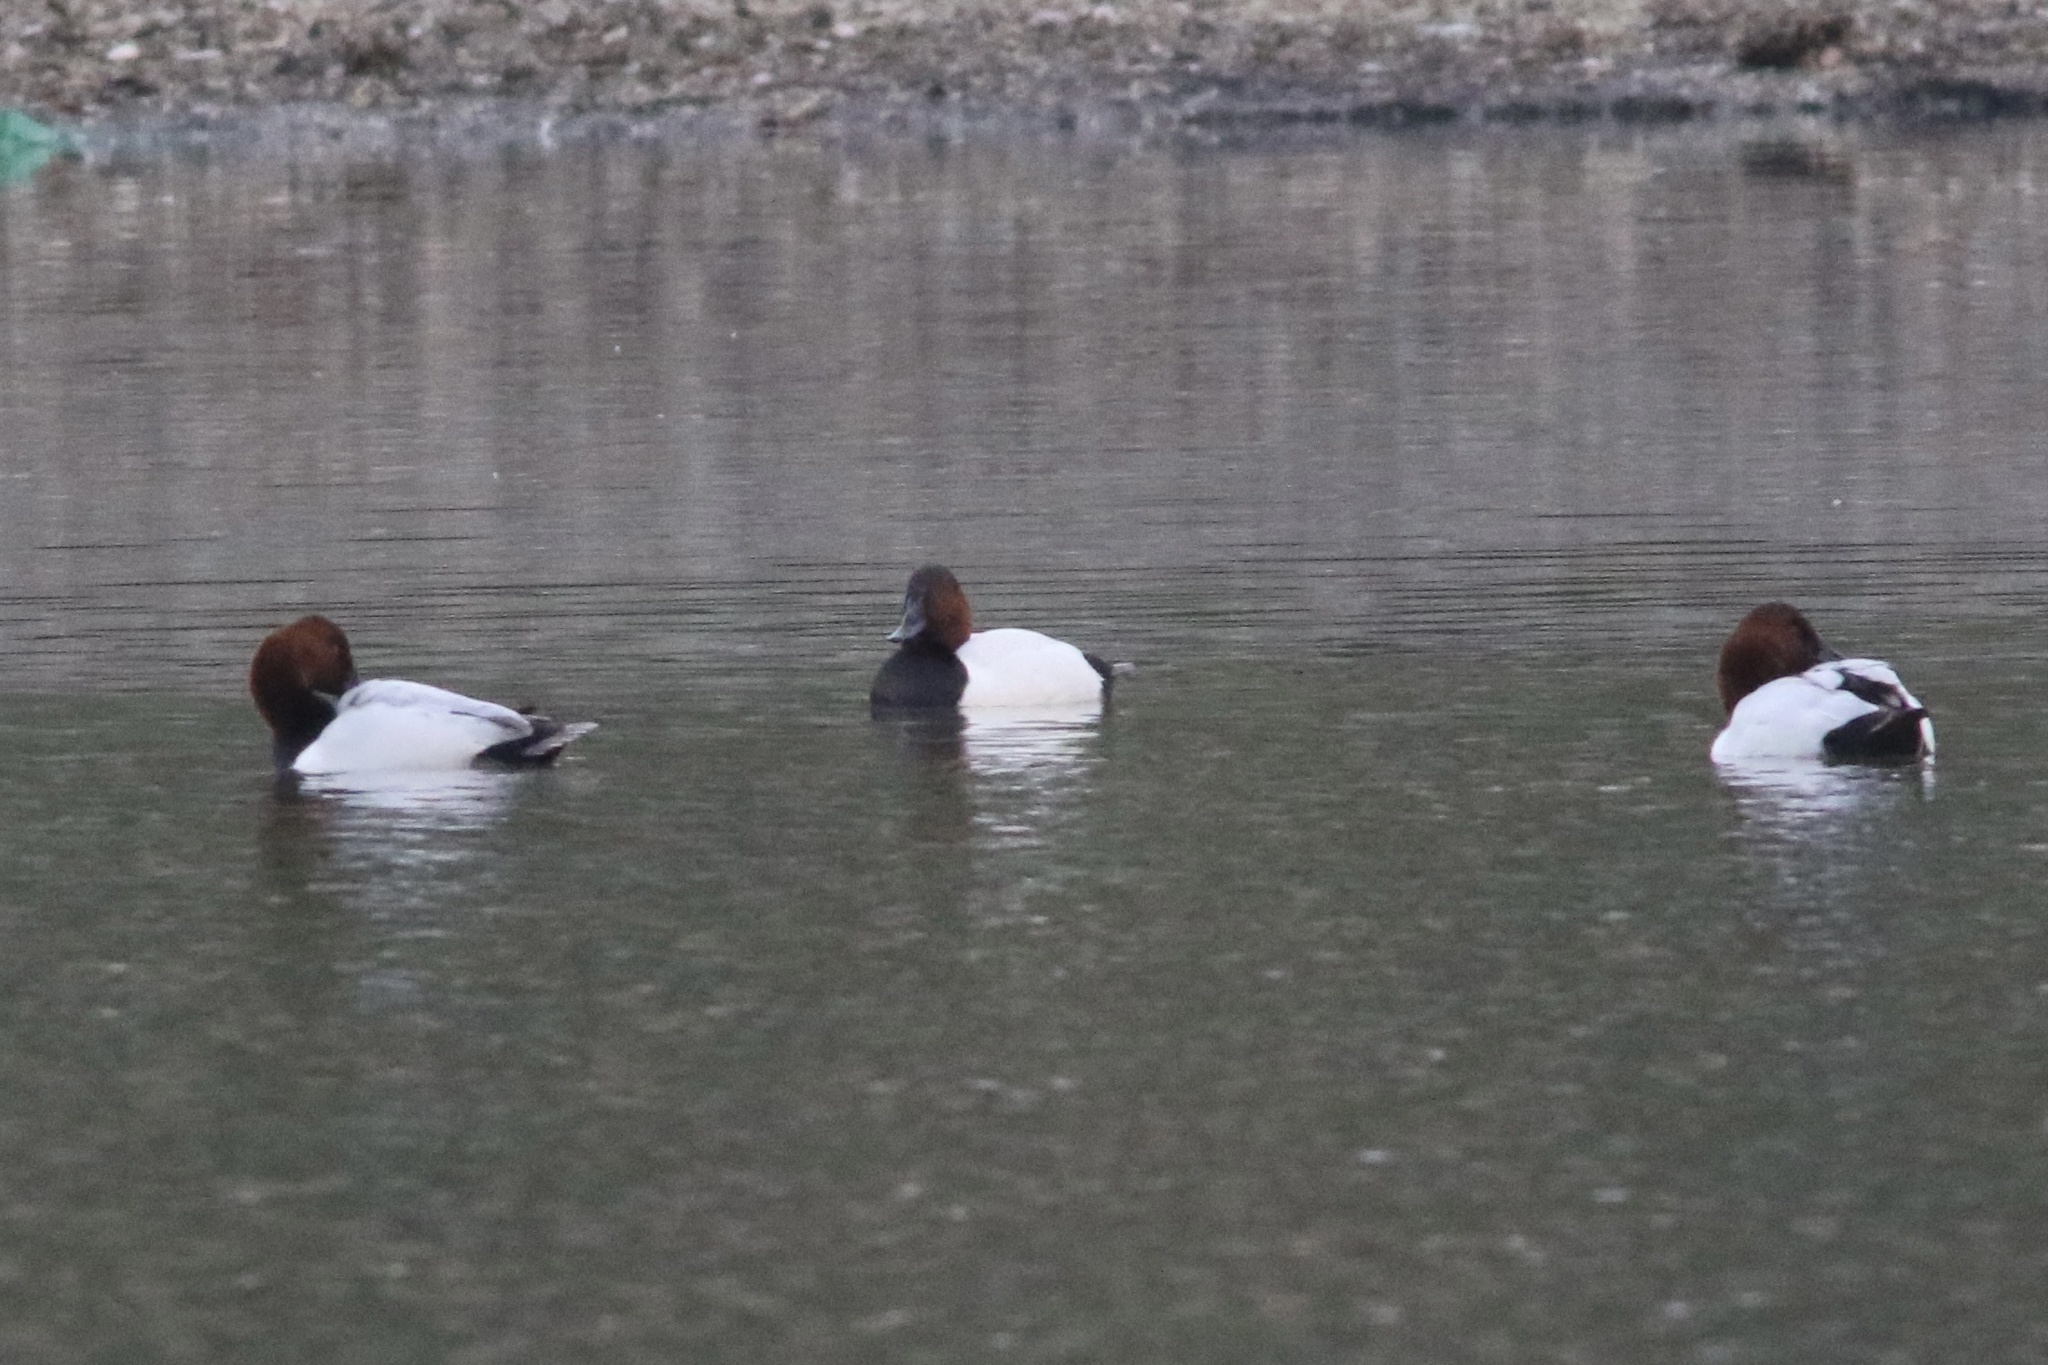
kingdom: Animalia
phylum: Chordata
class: Aves
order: Anseriformes
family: Anatidae
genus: Aythya
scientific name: Aythya valisineria
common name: Canvasback
